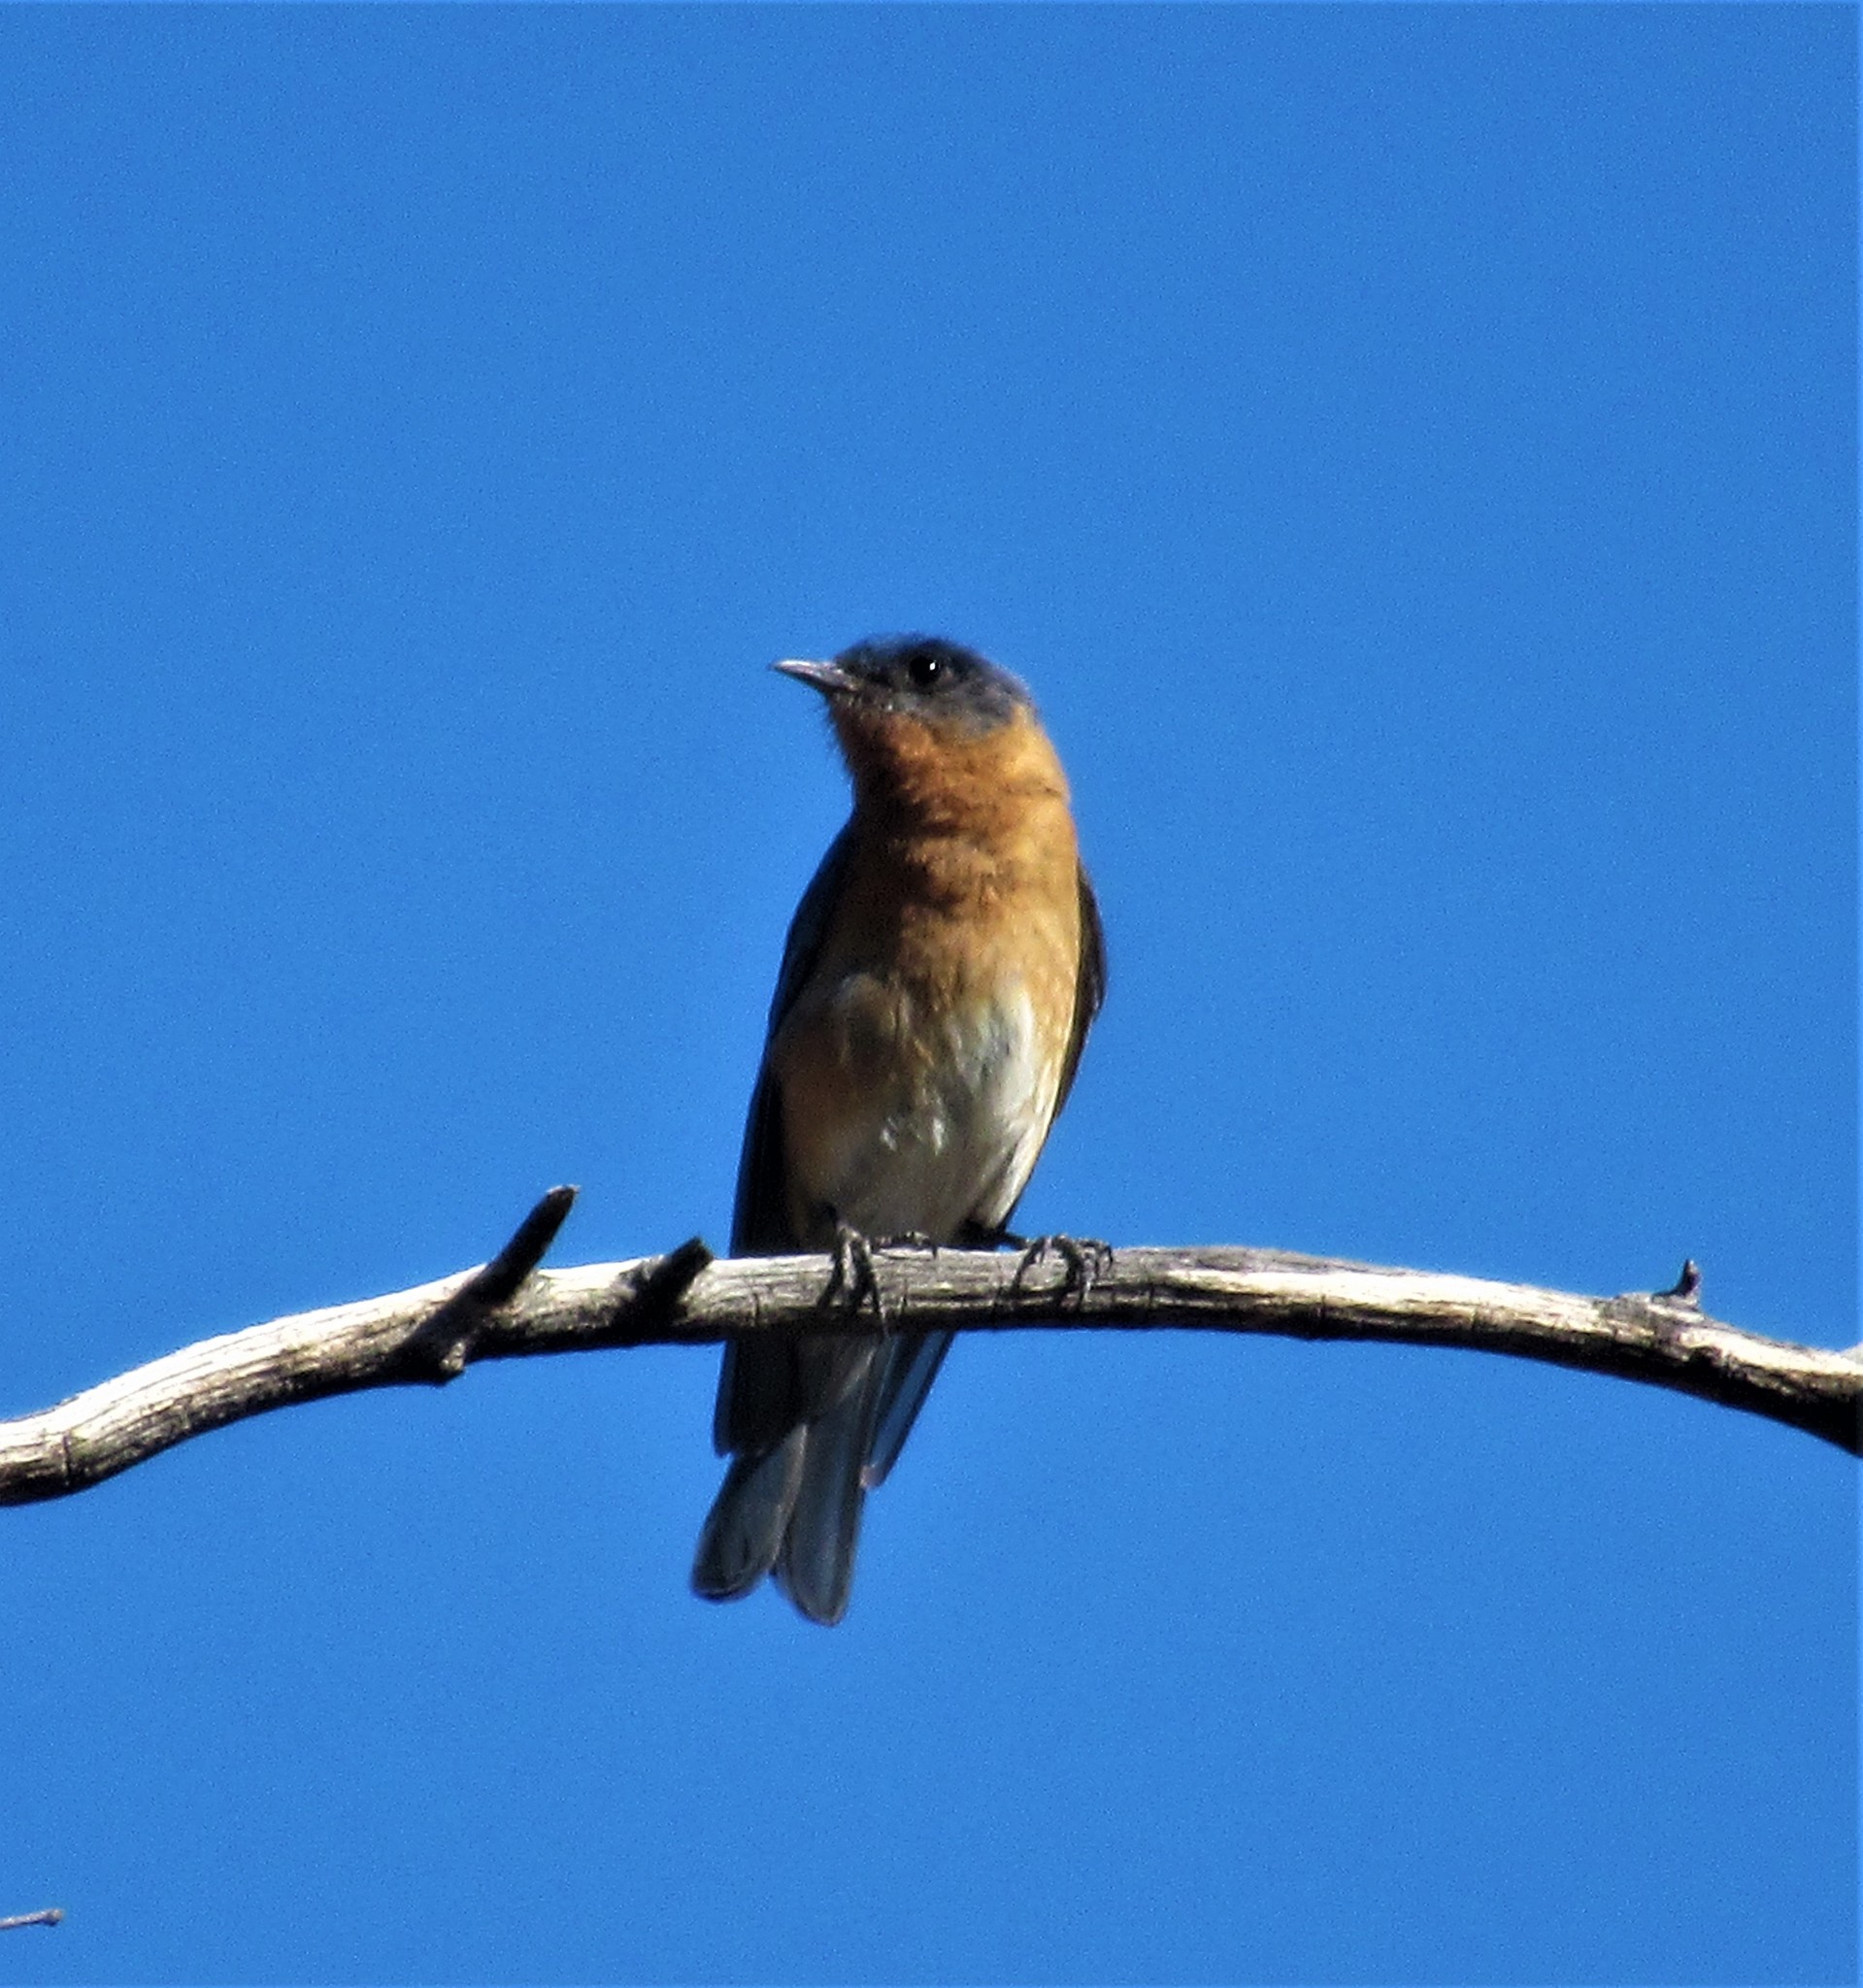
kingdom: Animalia
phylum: Chordata
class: Aves
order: Passeriformes
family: Turdidae
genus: Sialia
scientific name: Sialia sialis
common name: Eastern bluebird
